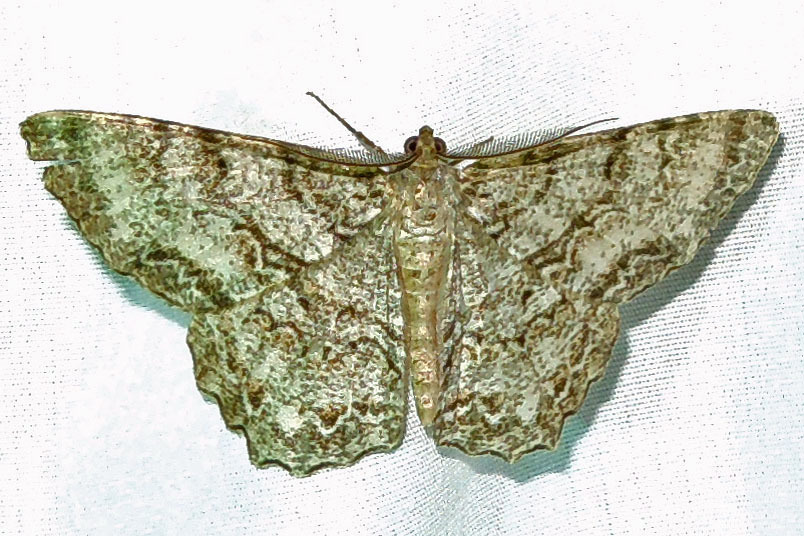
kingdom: Animalia
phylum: Arthropoda
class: Insecta
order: Lepidoptera
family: Geometridae
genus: Epimecis
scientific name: Epimecis hortaria
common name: Tulip-tree beauty
